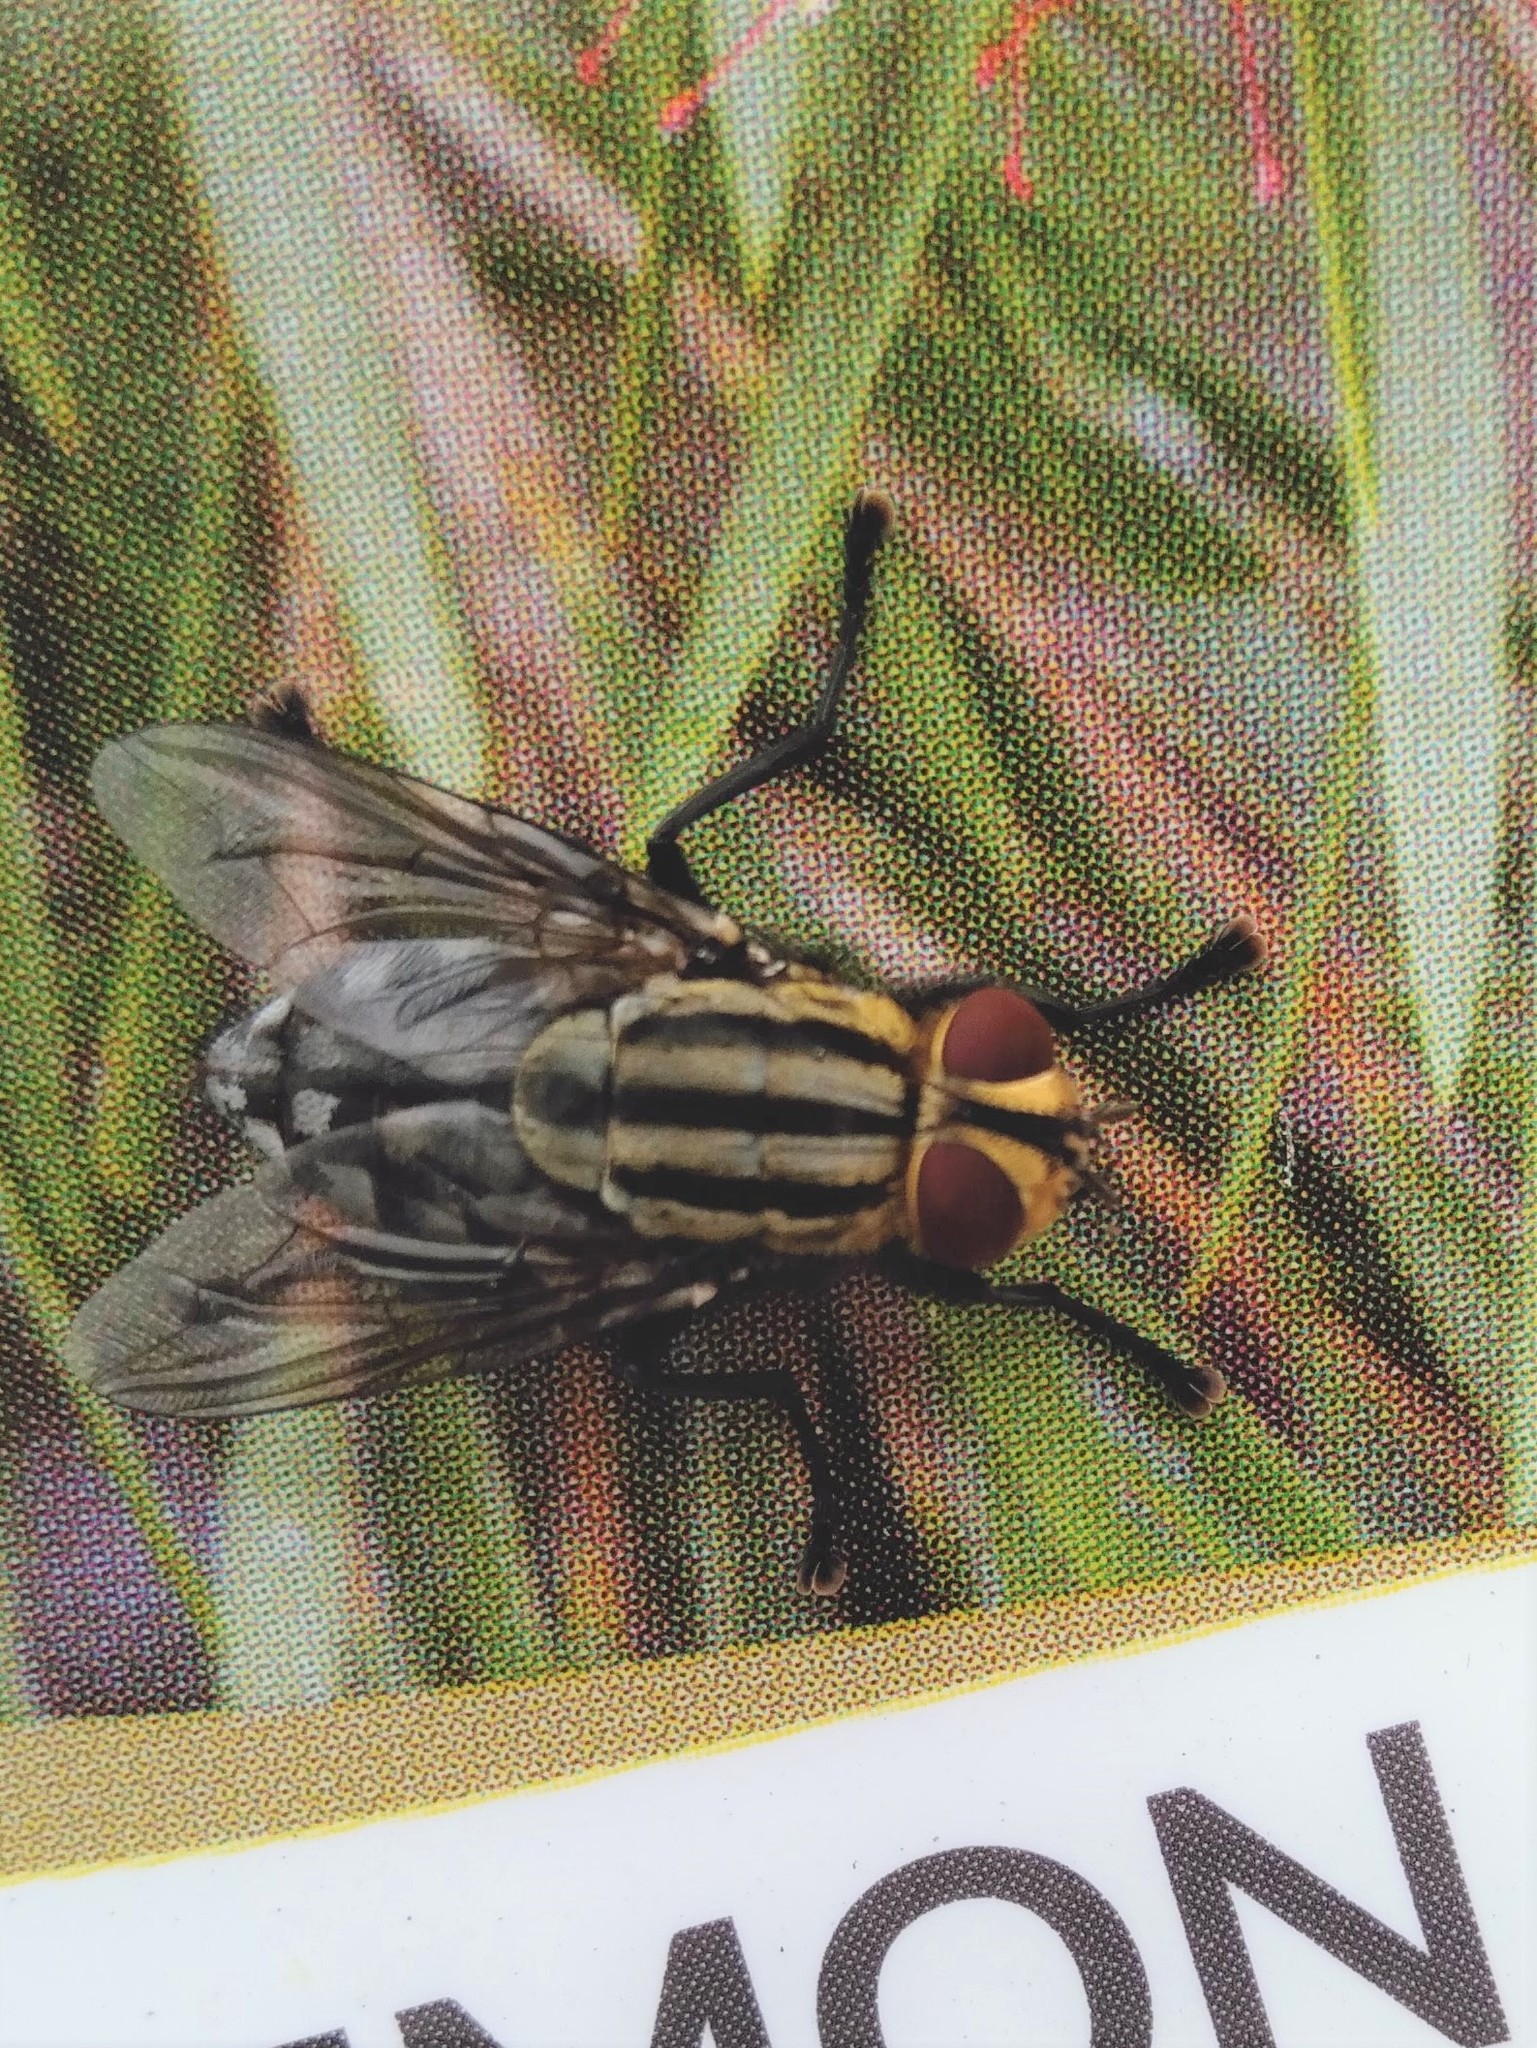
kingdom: Animalia
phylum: Arthropoda
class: Insecta
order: Diptera
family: Sarcophagidae
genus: Sarcophaga
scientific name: Sarcophaga
